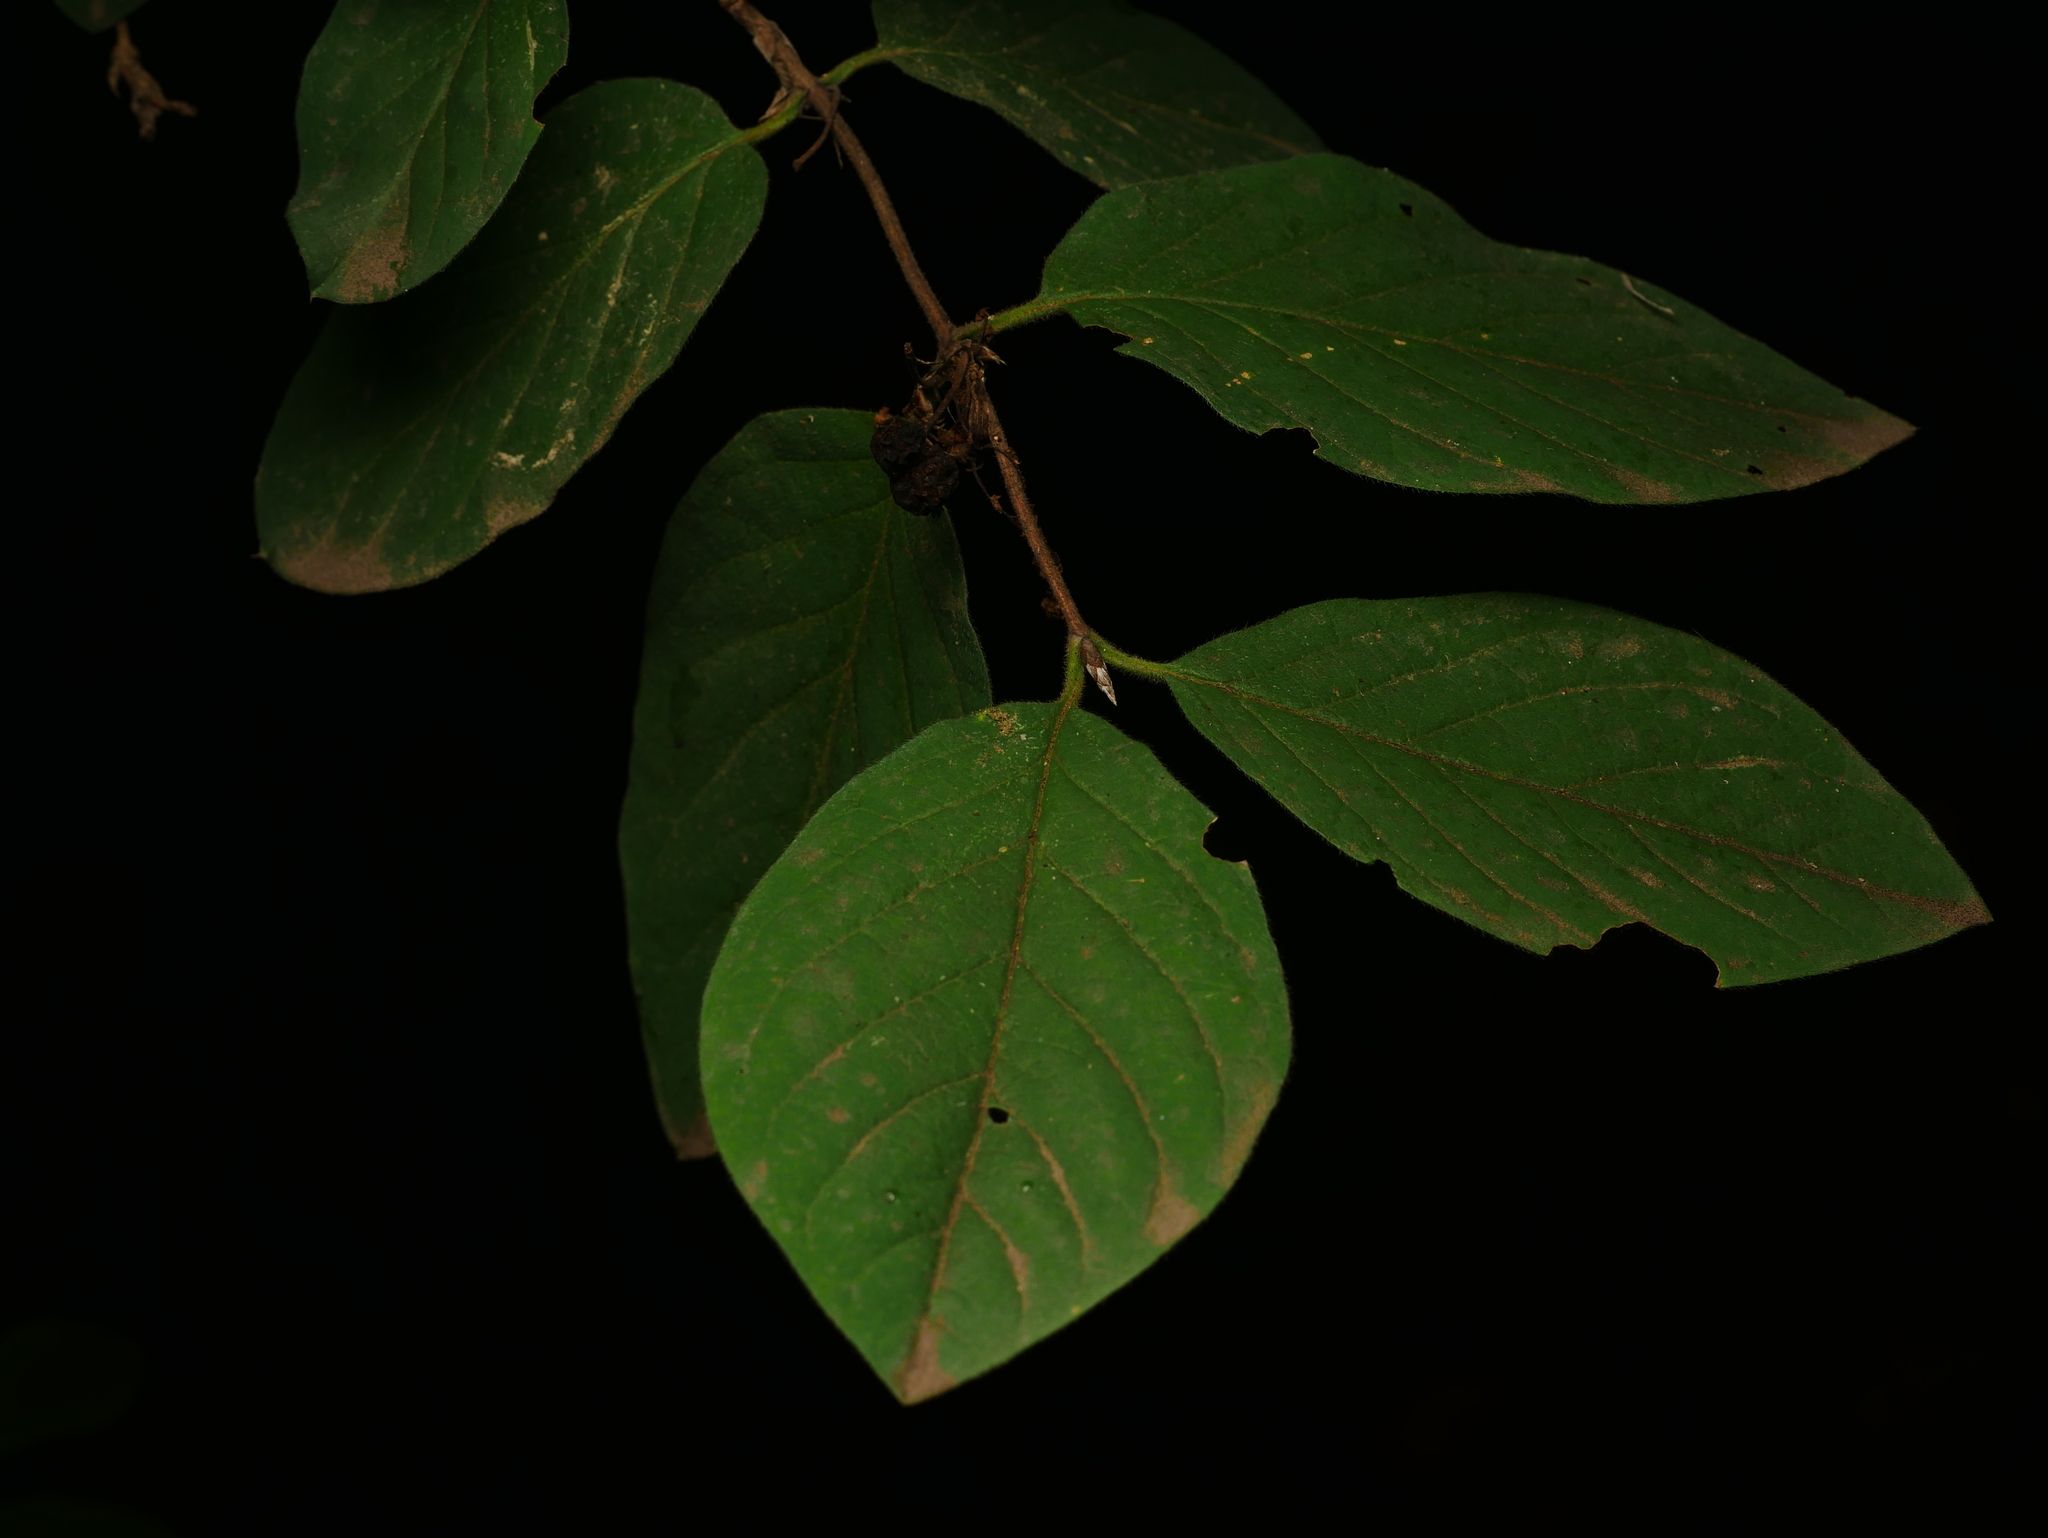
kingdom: Plantae
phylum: Tracheophyta
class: Magnoliopsida
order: Dipsacales
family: Caprifoliaceae
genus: Lonicera
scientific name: Lonicera xylosteum
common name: Fly honeysuckle
